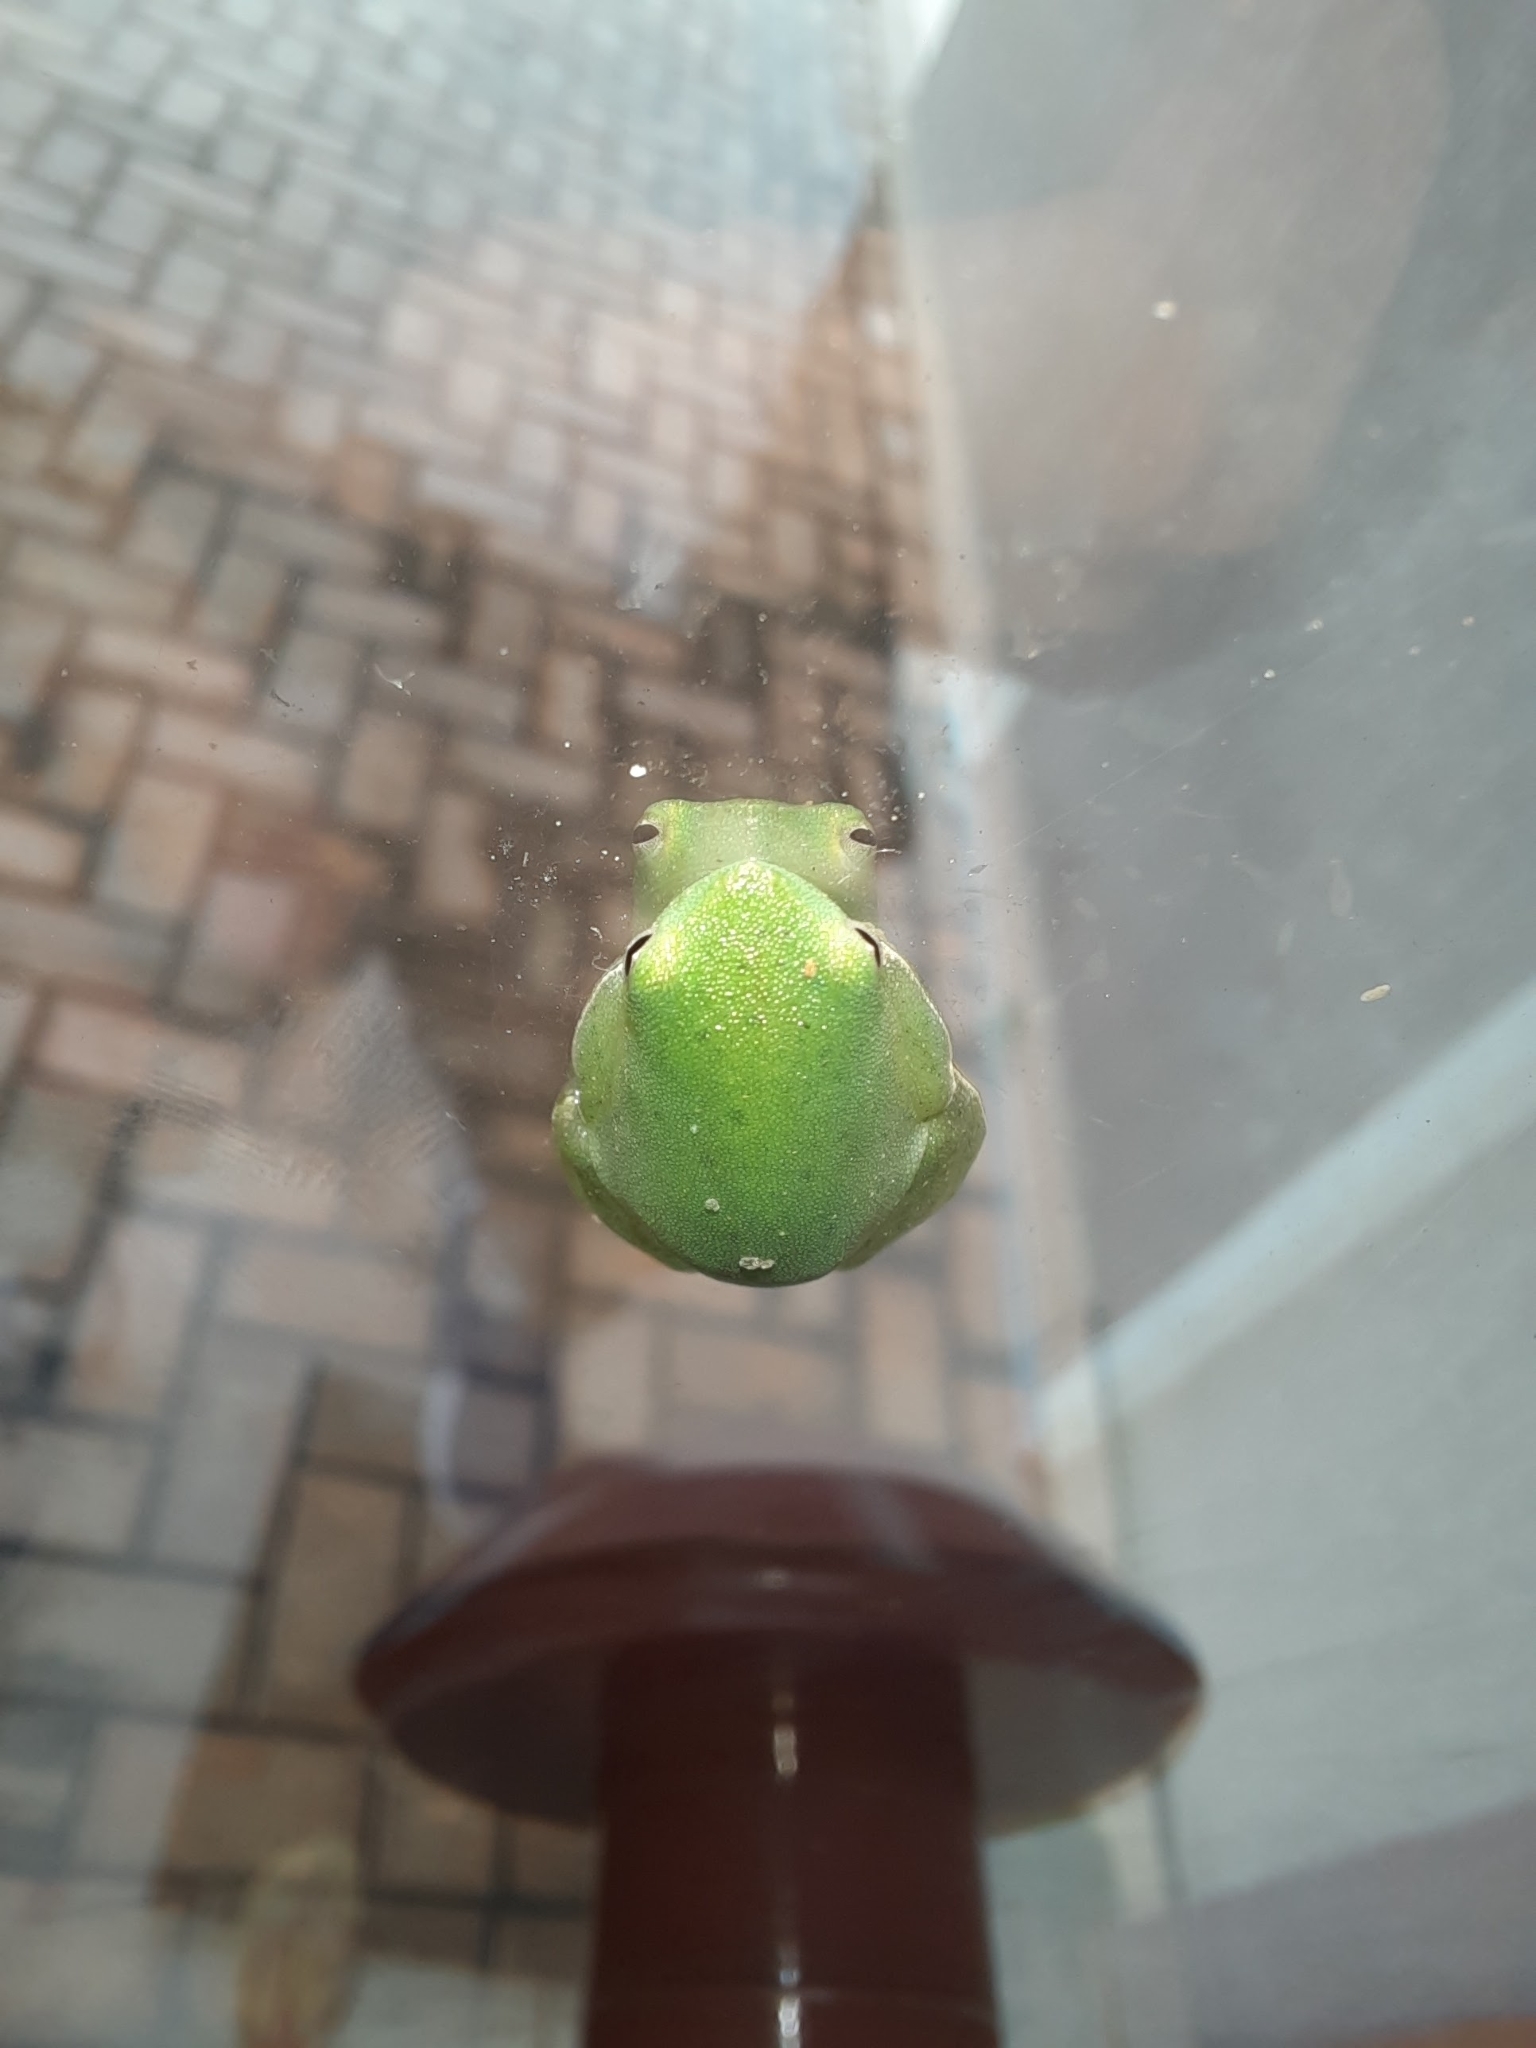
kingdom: Animalia
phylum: Chordata
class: Amphibia
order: Anura
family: Hylidae
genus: Sphaenorhynchus
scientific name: Sphaenorhynchus planicola
